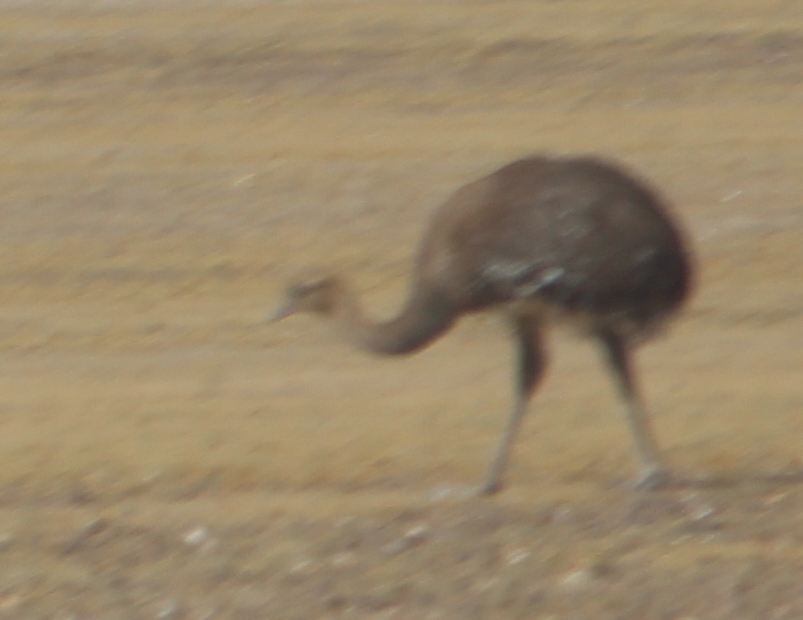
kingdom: Animalia
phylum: Chordata
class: Aves
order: Rheiformes
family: Rheidae
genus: Rhea
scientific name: Rhea pennata
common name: Lesser rhea
